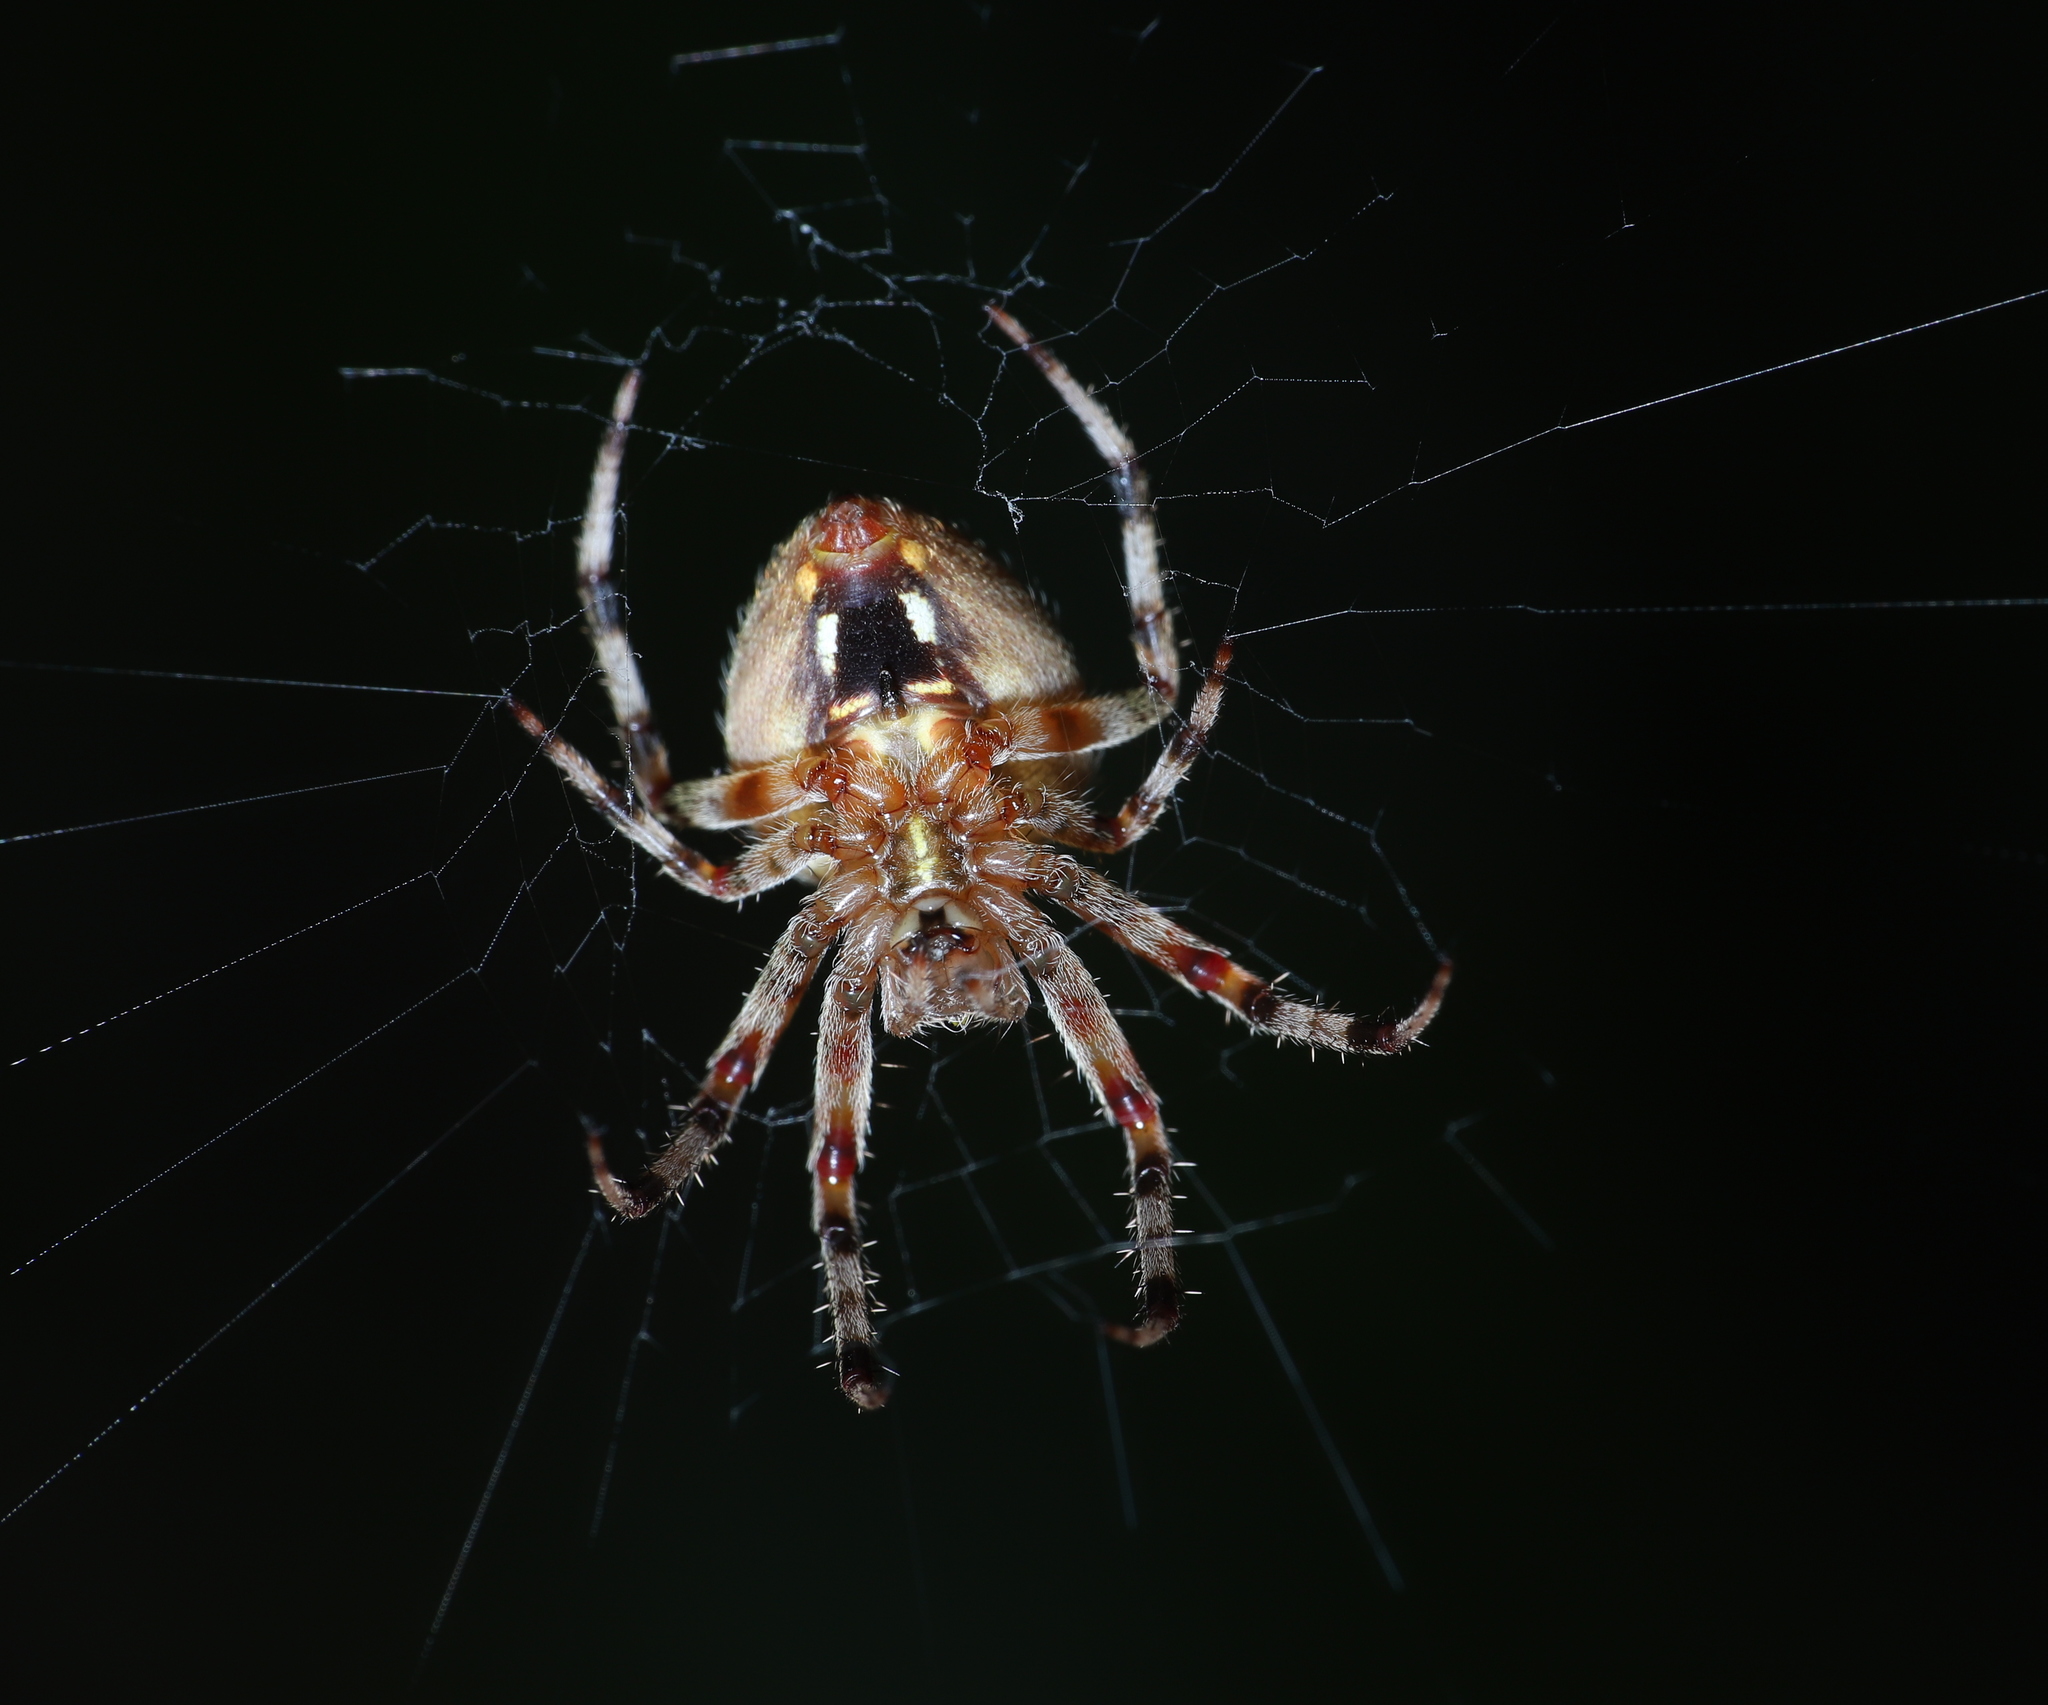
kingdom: Animalia
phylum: Arthropoda
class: Arachnida
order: Araneae
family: Araneidae
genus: Neoscona
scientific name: Neoscona crucifera
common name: Spotted orbweaver
